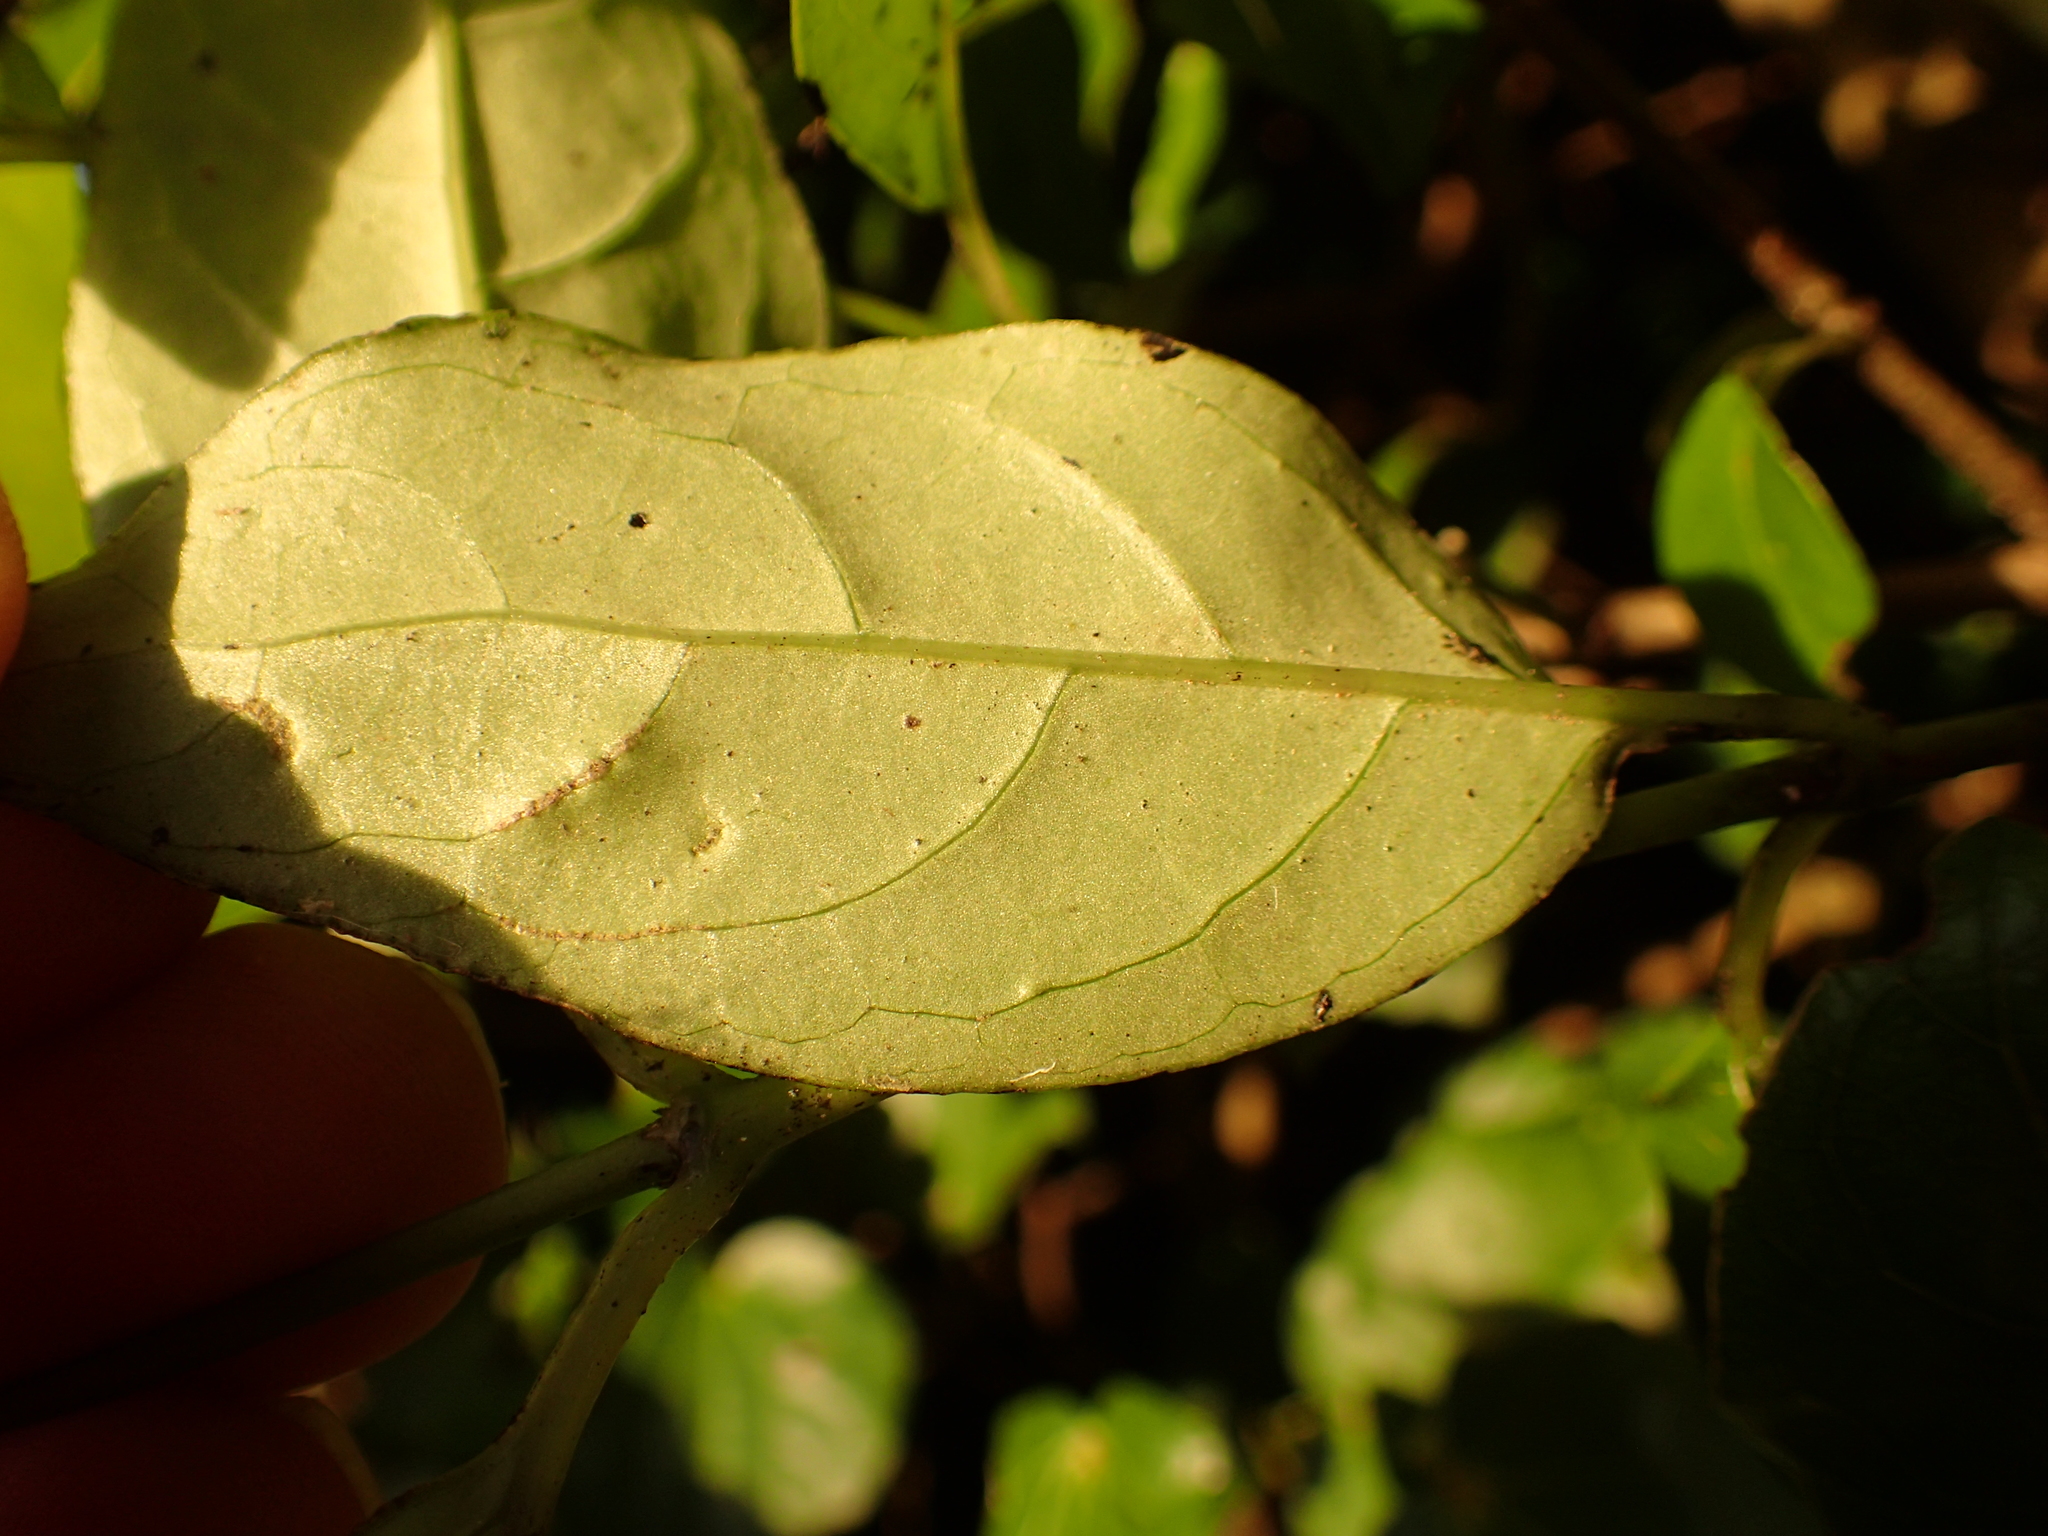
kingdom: Plantae
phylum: Tracheophyta
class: Magnoliopsida
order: Gentianales
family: Loganiaceae
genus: Geniostoma
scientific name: Geniostoma ligustrifolium
